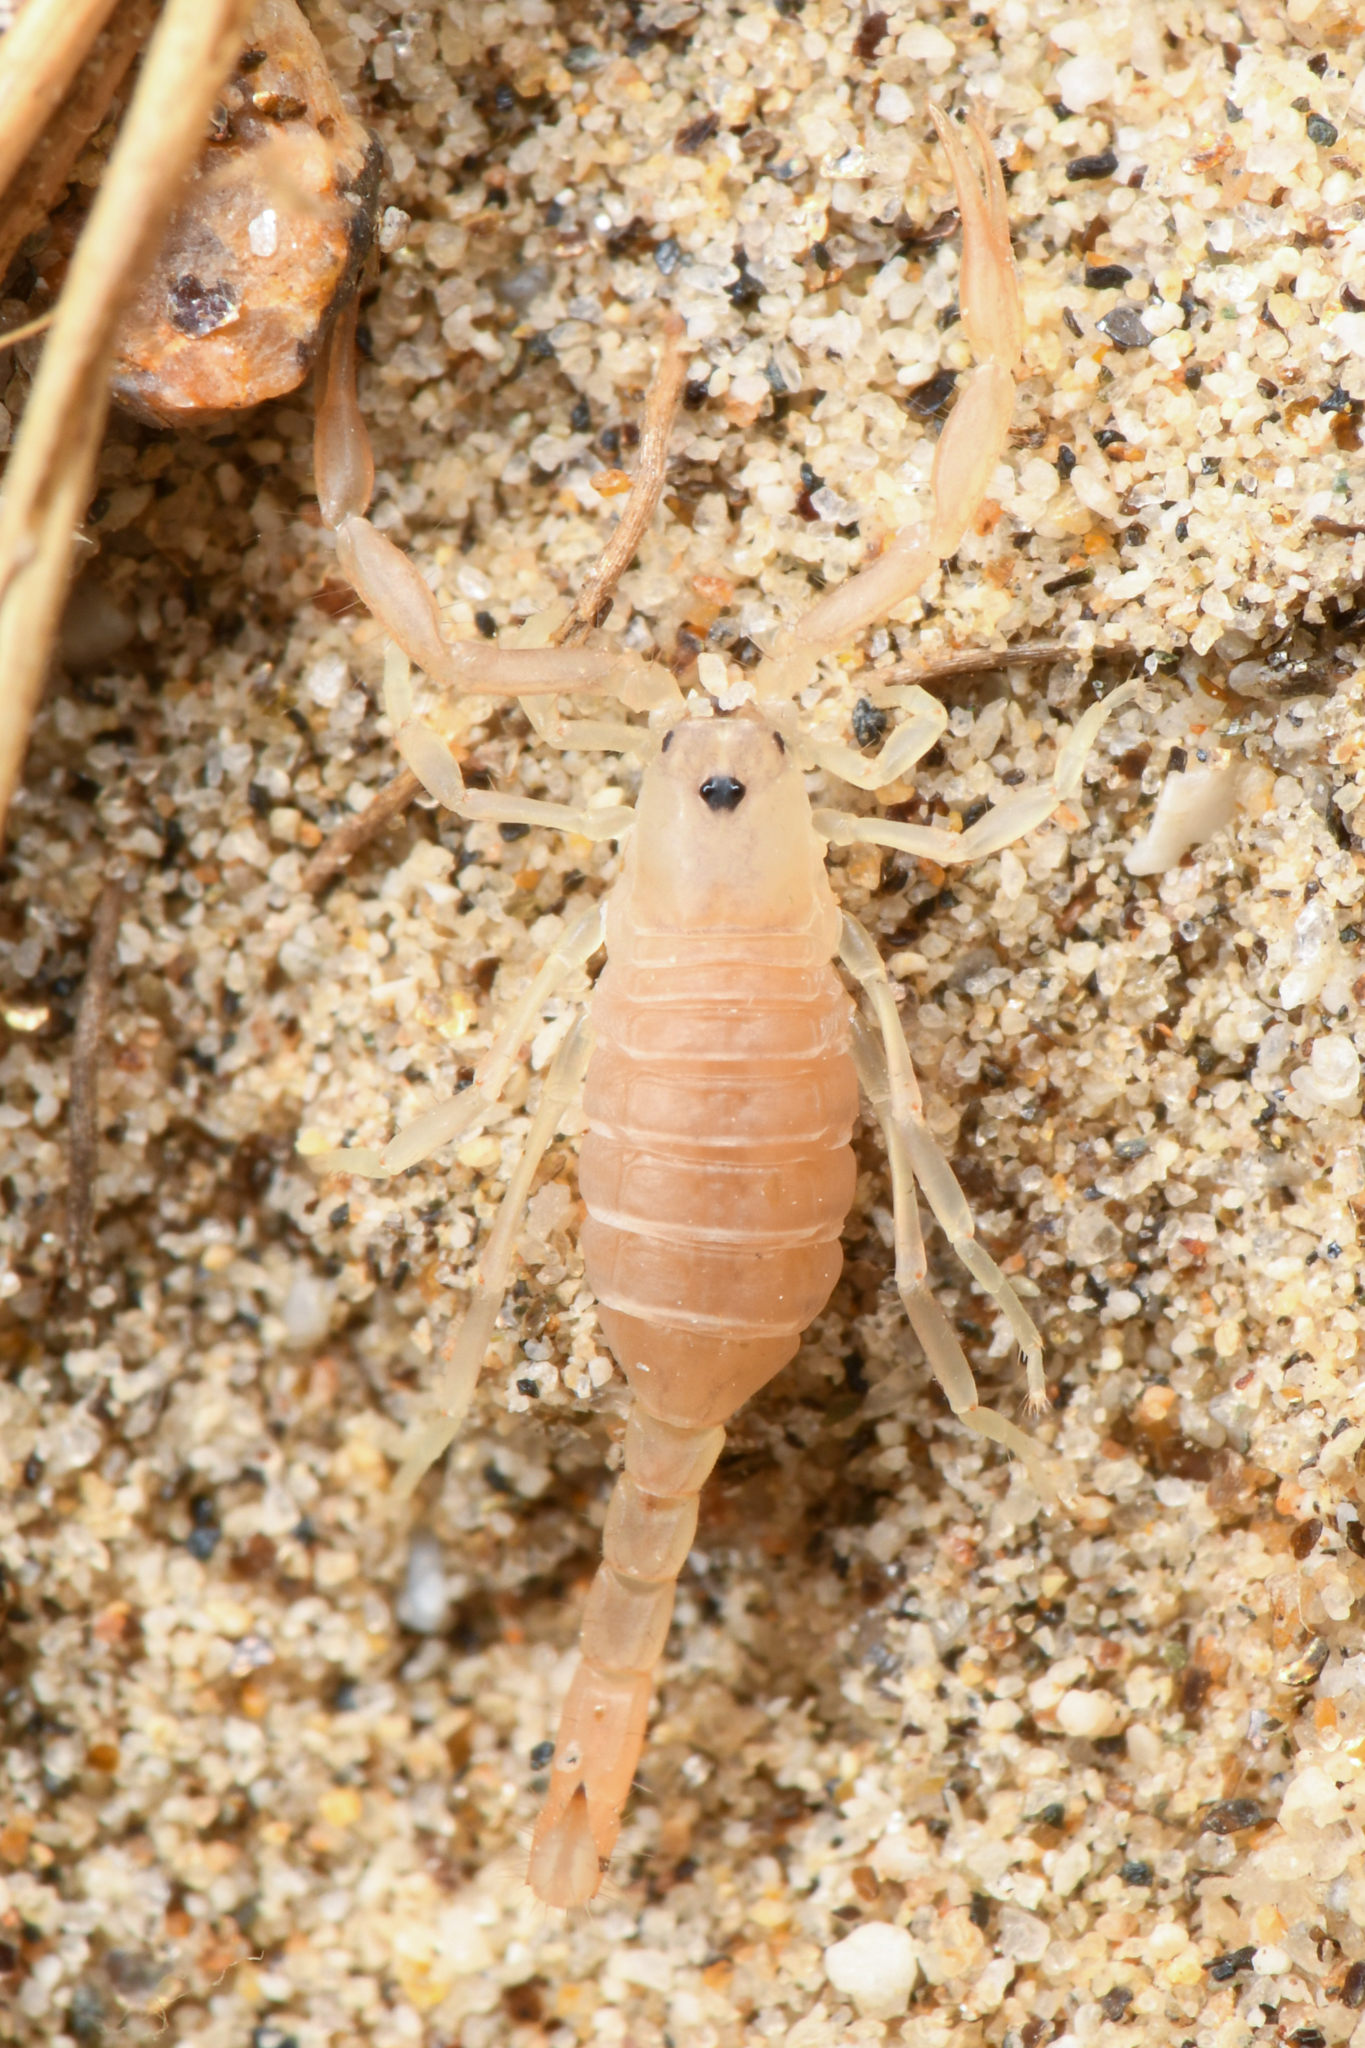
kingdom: Animalia
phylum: Arthropoda
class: Arachnida
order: Scorpiones
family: Vaejovidae
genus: Paravaejovis
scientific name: Paravaejovis waeringi
